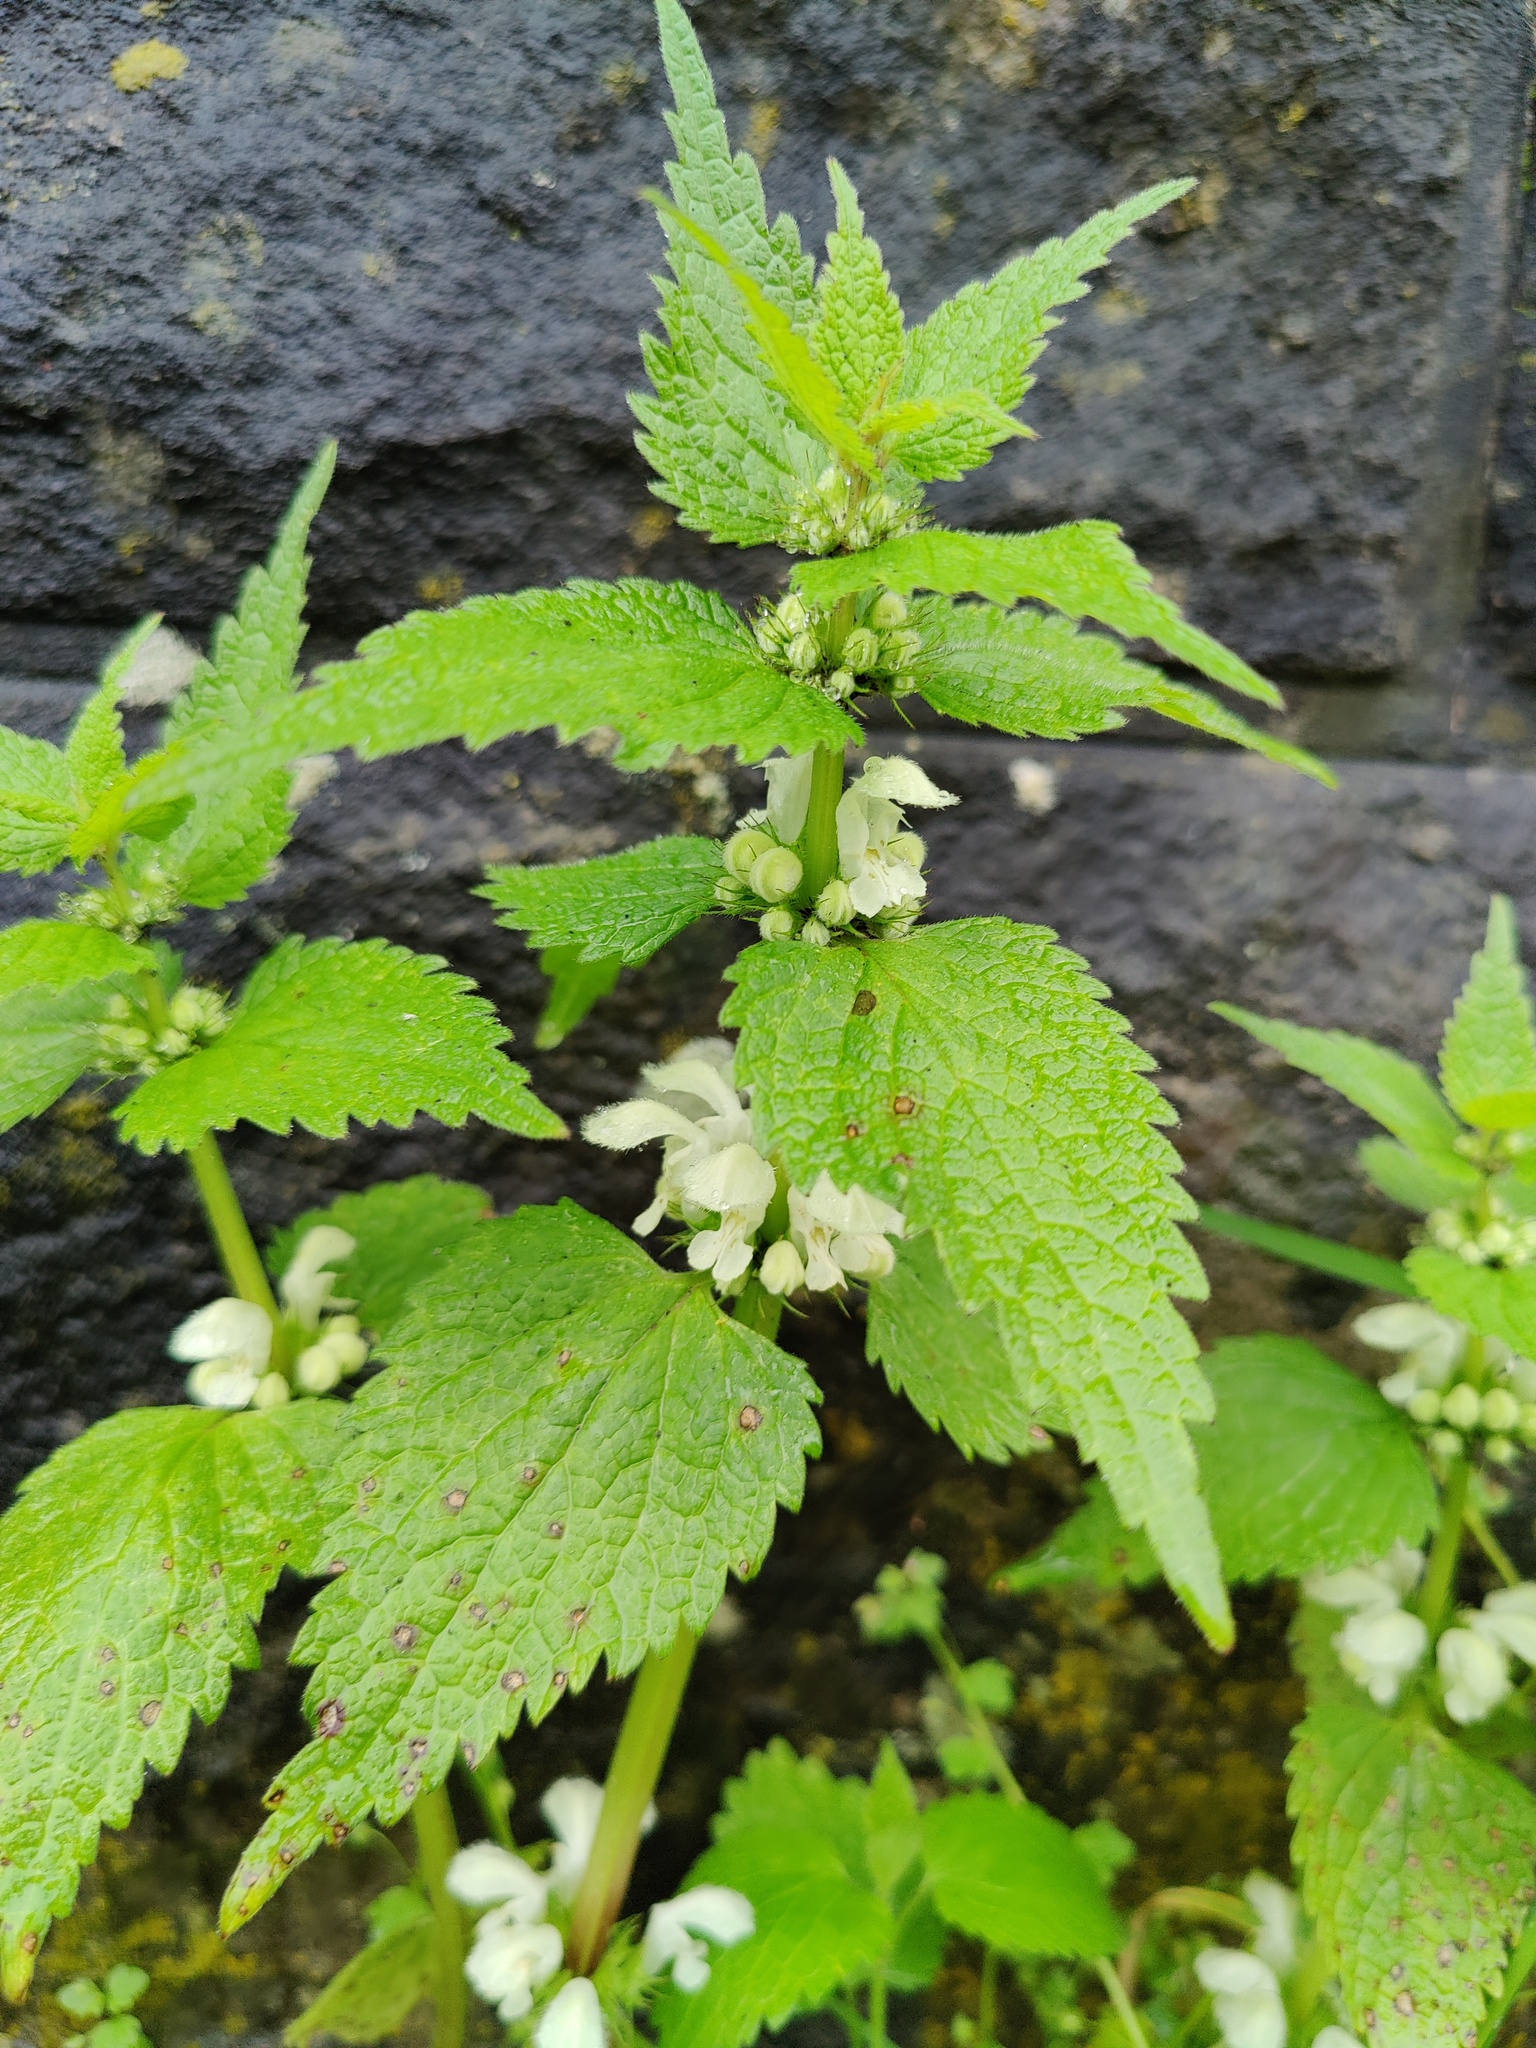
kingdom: Plantae
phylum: Tracheophyta
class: Magnoliopsida
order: Lamiales
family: Lamiaceae
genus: Lamium
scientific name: Lamium album
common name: White dead-nettle
